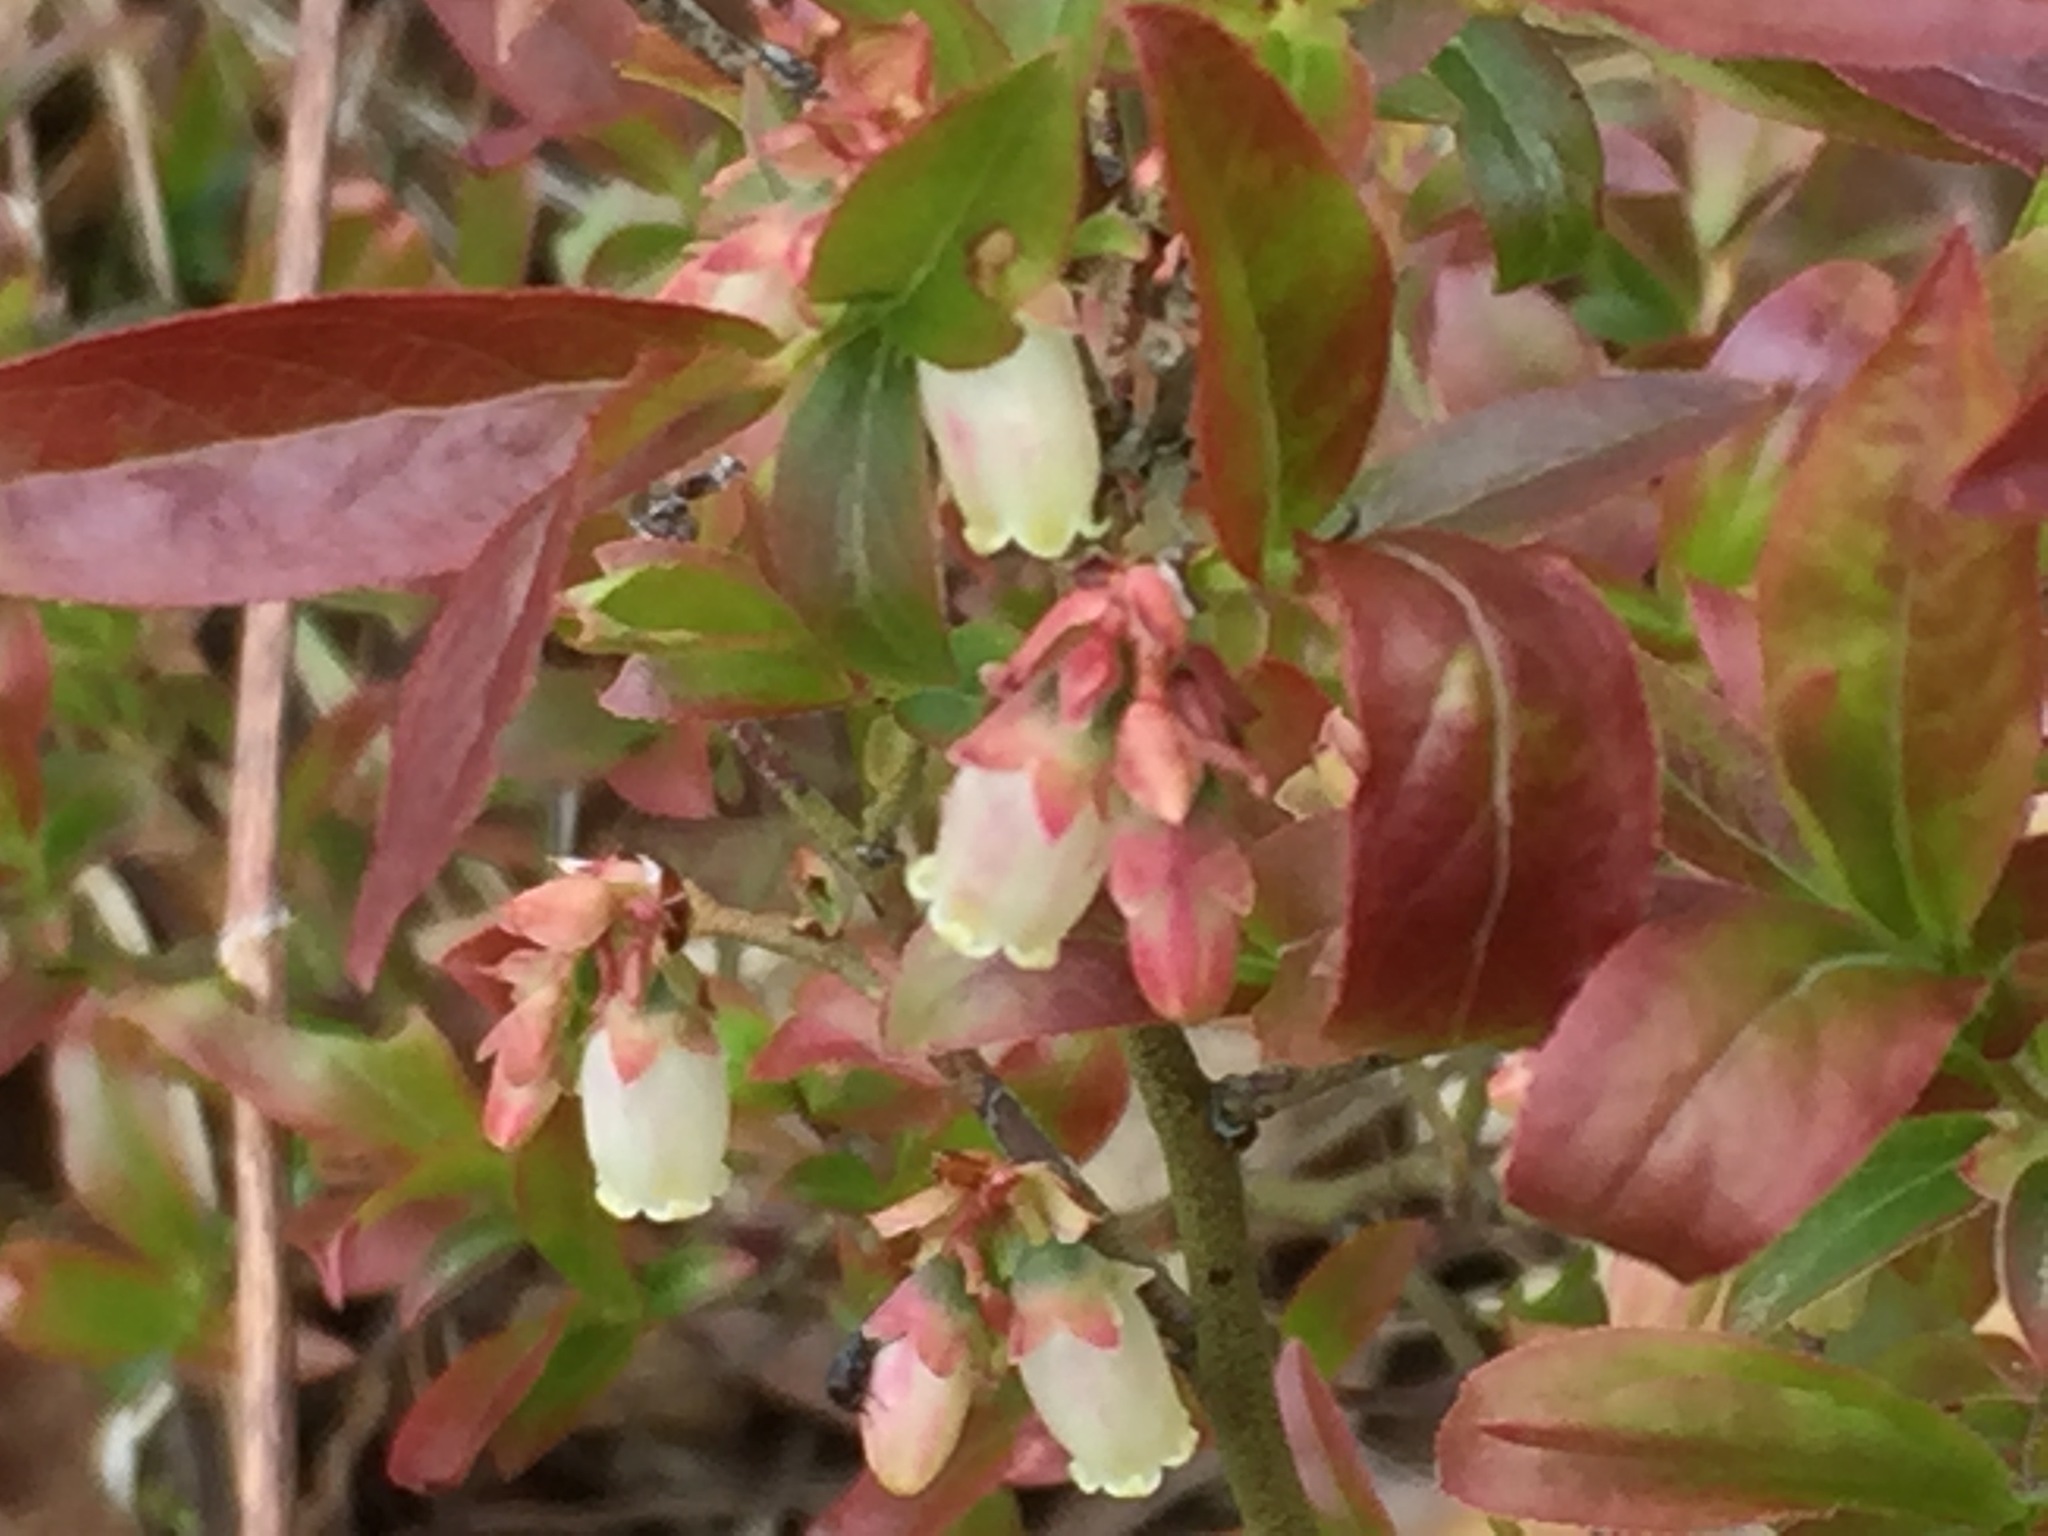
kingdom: Plantae
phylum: Tracheophyta
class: Magnoliopsida
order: Ericales
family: Ericaceae
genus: Vaccinium
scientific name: Vaccinium angustifolium
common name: Early lowbush blueberry
